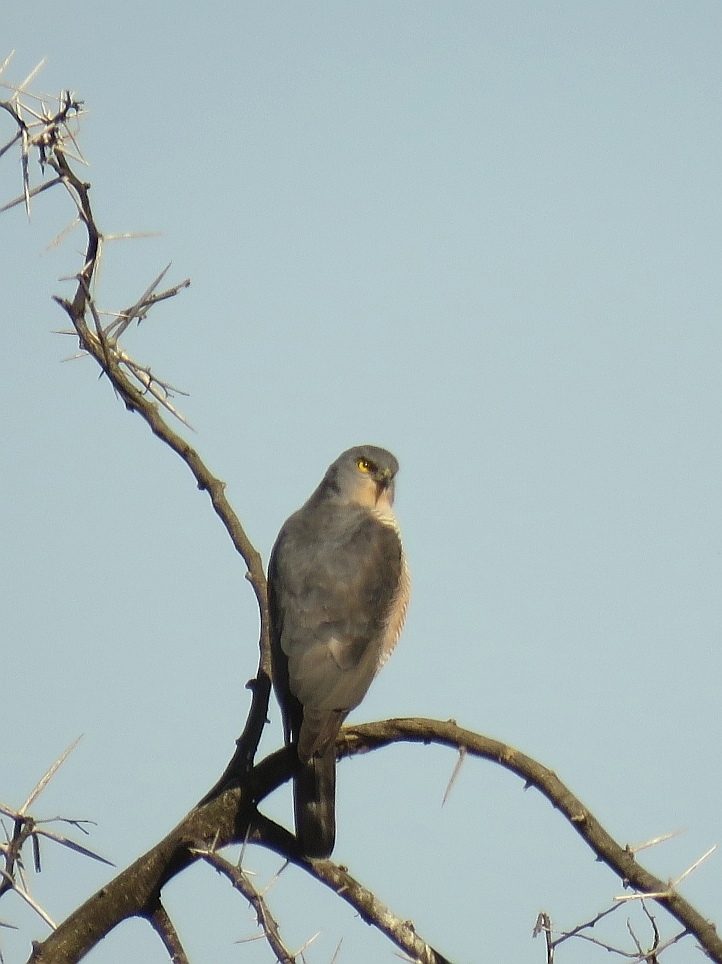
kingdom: Animalia
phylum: Chordata
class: Aves
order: Accipitriformes
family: Accipitridae
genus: Accipiter
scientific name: Accipiter tachiro
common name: African goshawk
